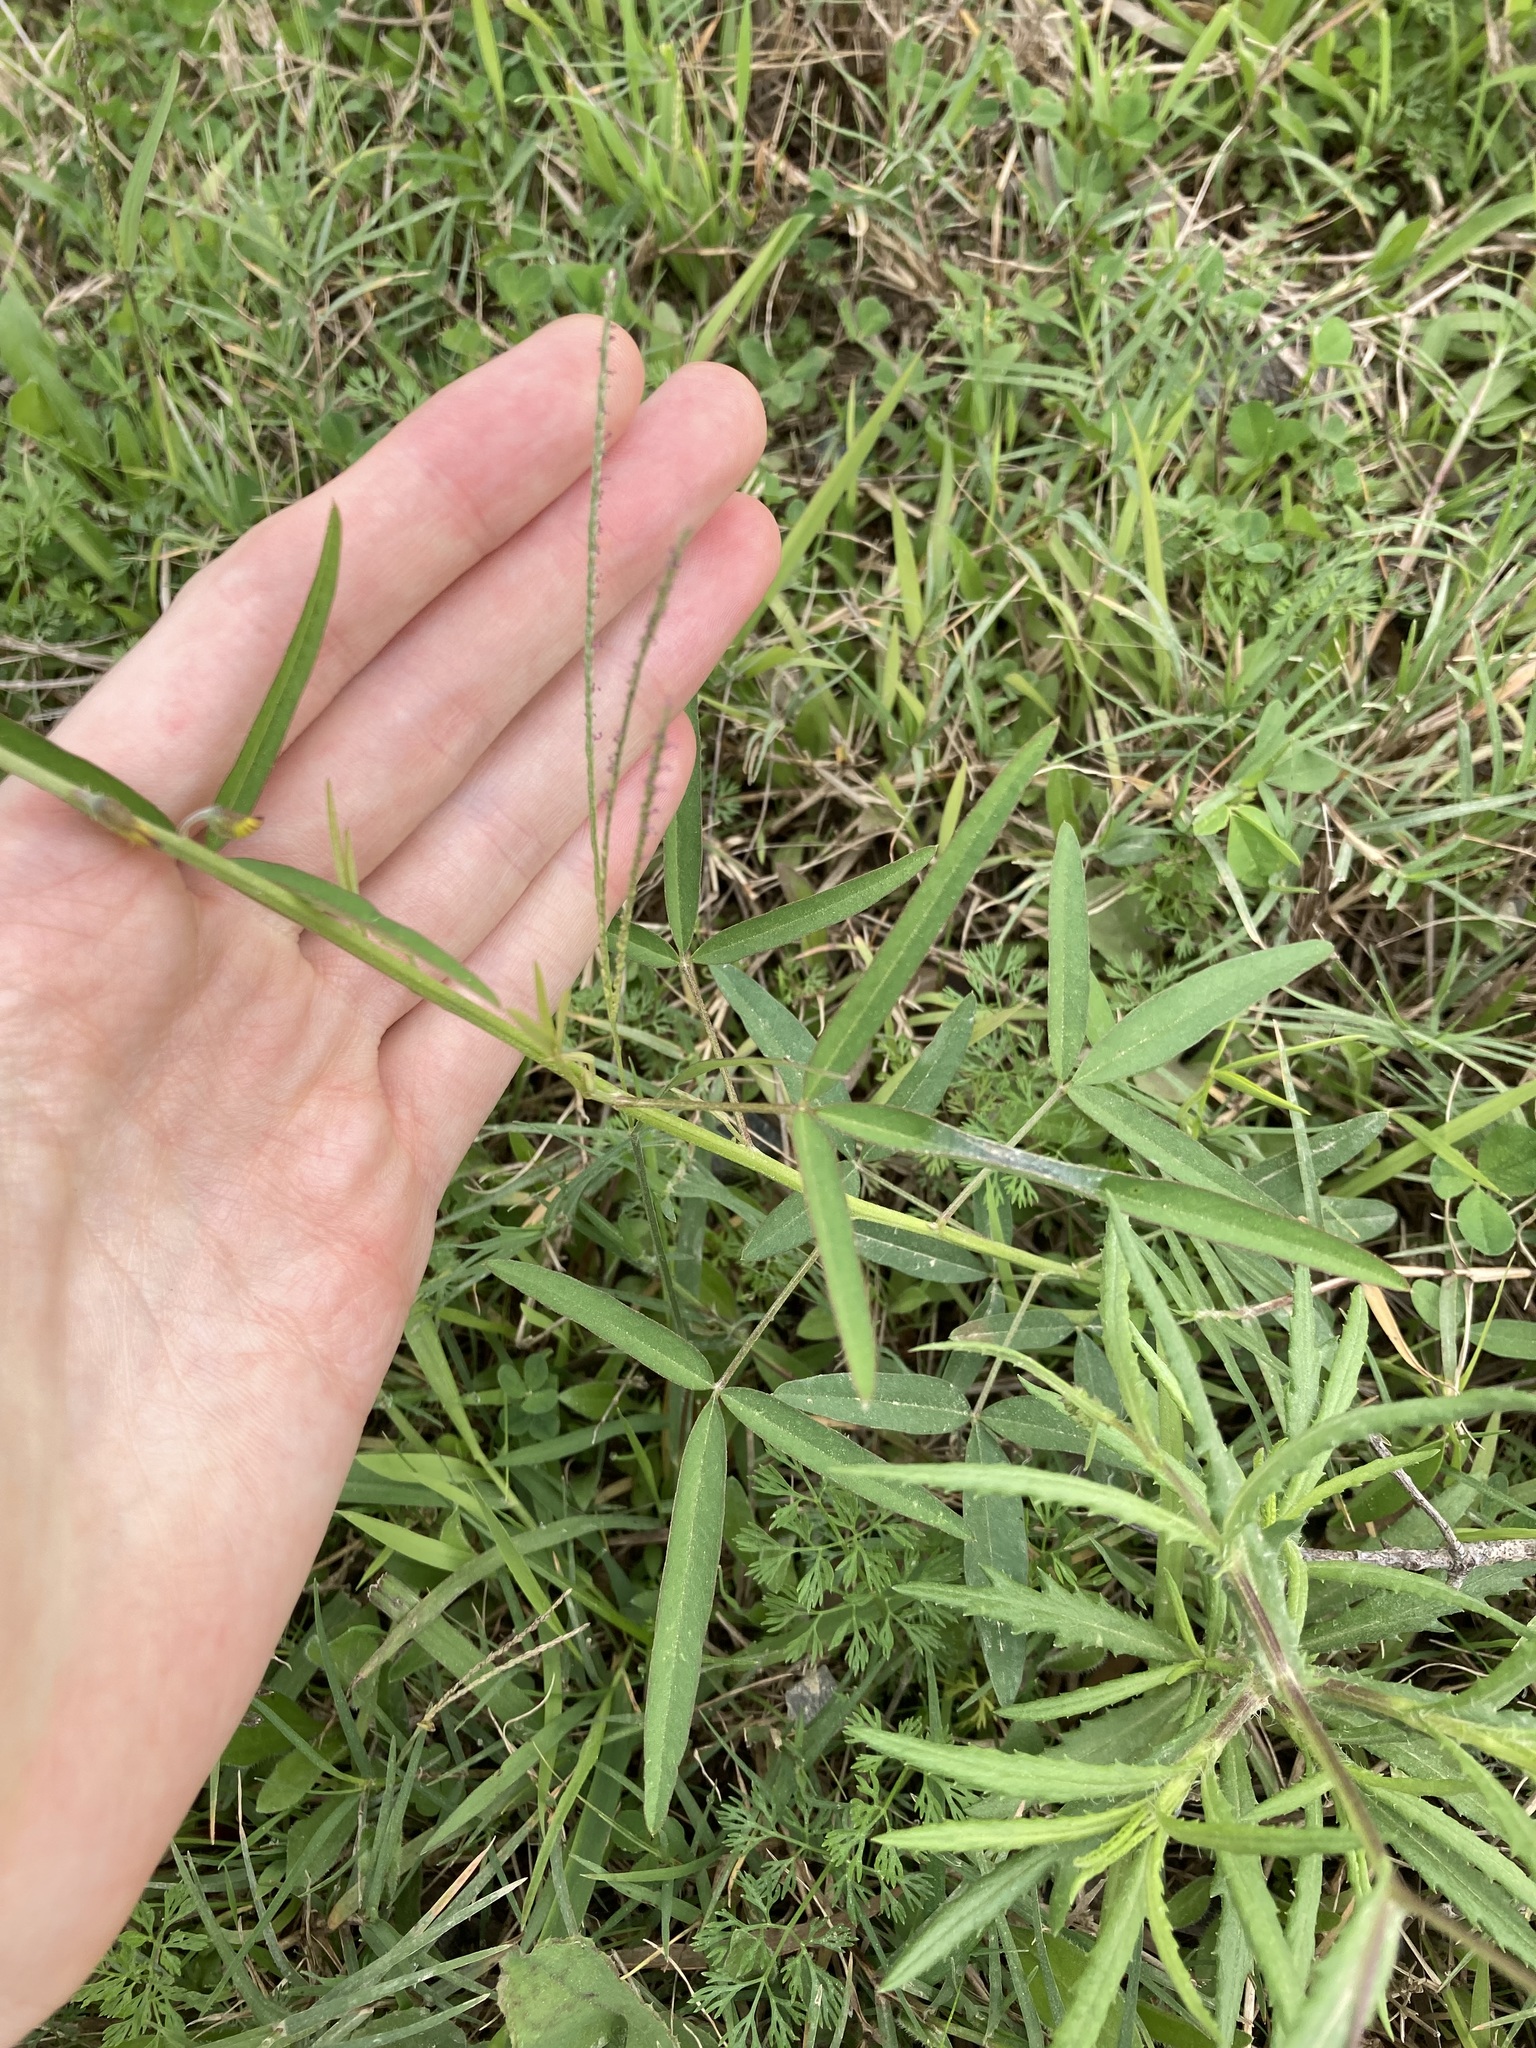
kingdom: Plantae
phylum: Tracheophyta
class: Magnoliopsida
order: Fabales
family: Fabaceae
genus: Crotalaria
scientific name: Crotalaria lanceolata
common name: Lanceleaf rattlebox
